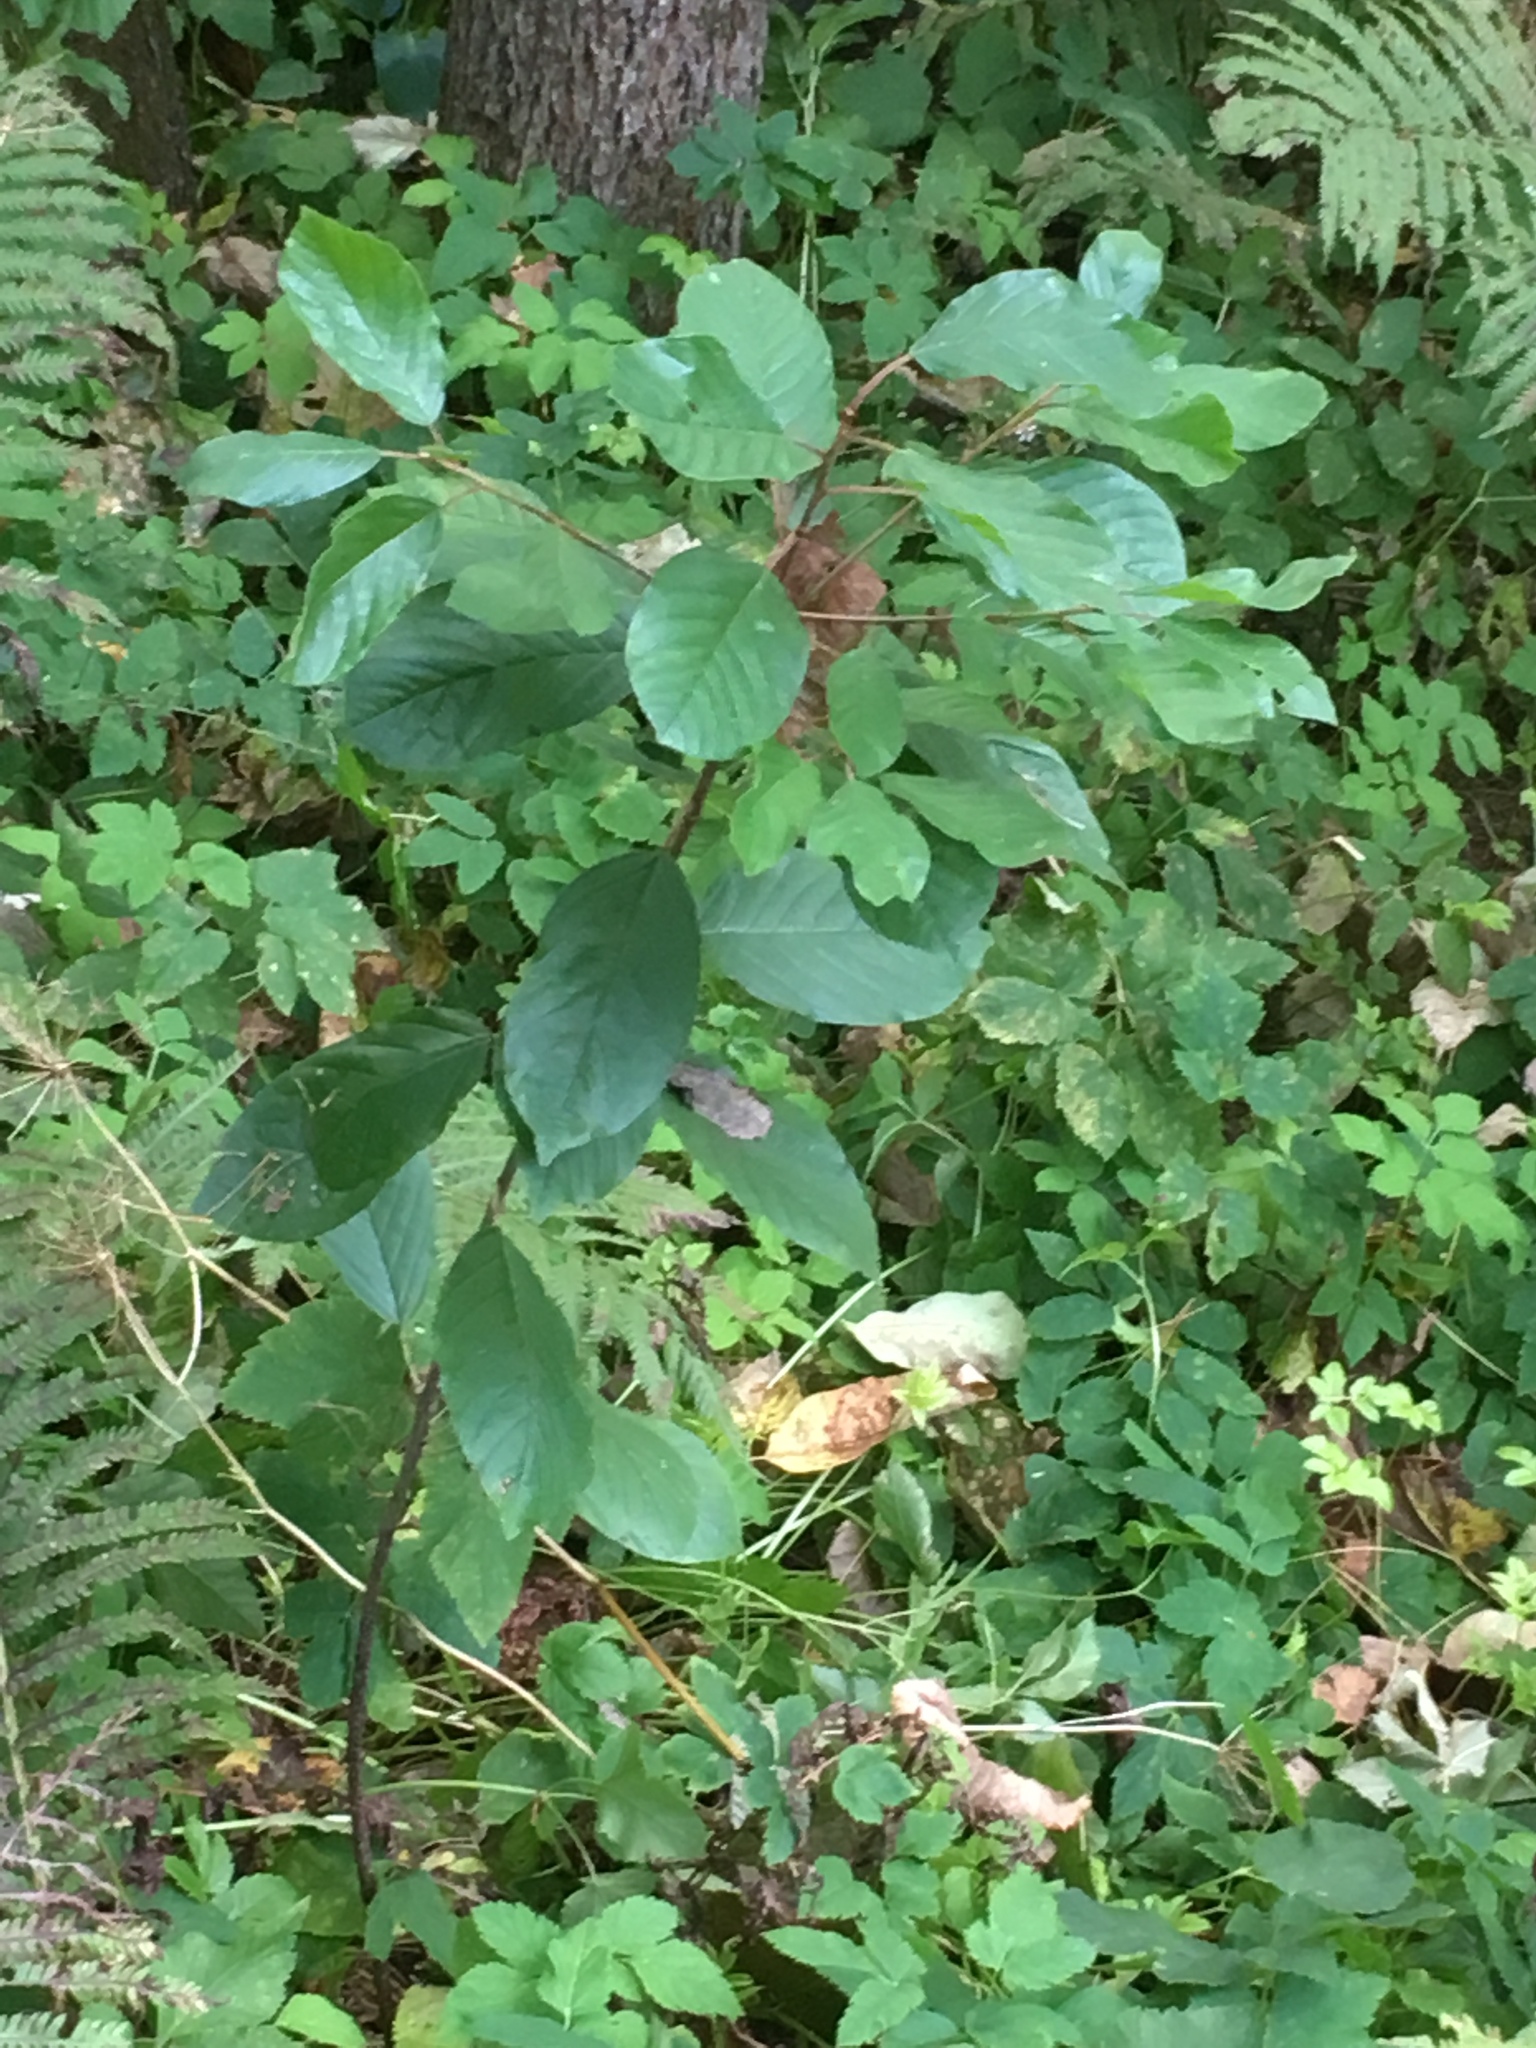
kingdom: Plantae
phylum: Tracheophyta
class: Magnoliopsida
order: Rosales
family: Rhamnaceae
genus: Frangula
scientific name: Frangula alnus
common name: Alder buckthorn
